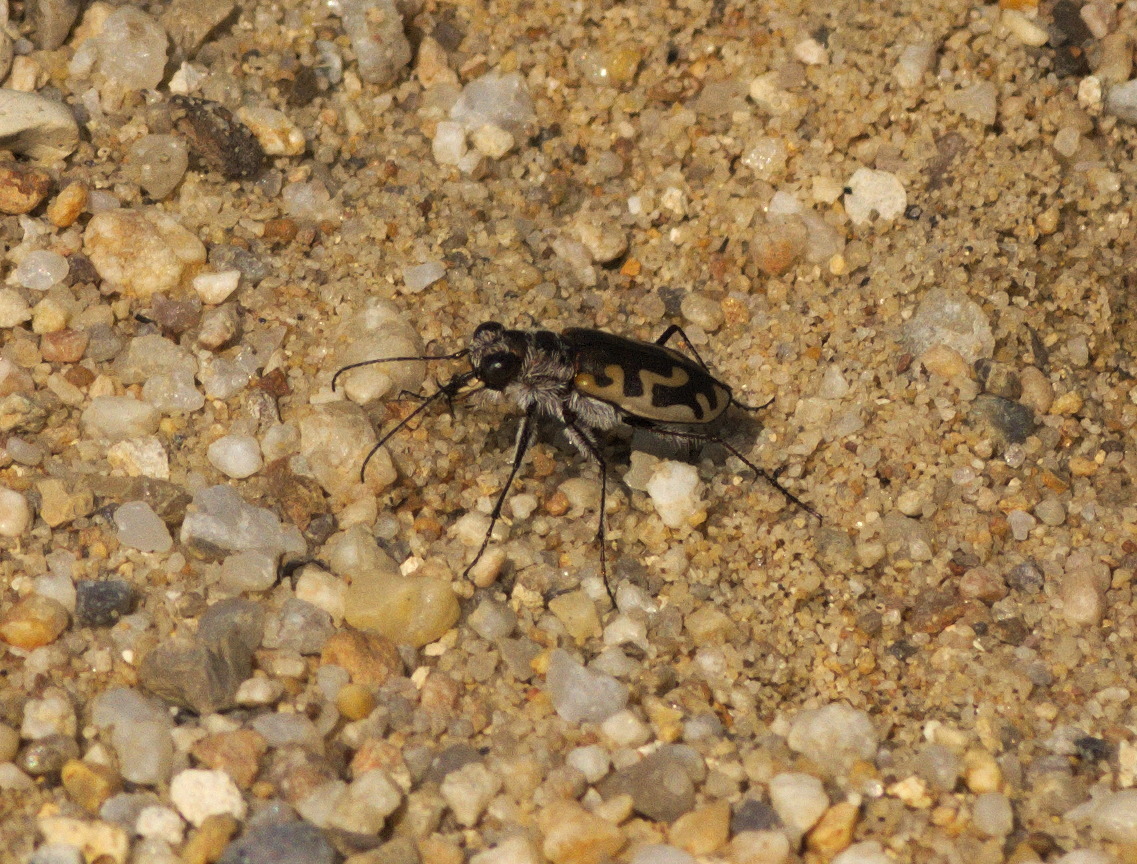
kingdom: Animalia
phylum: Arthropoda
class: Insecta
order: Coleoptera
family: Carabidae
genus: Cicindela
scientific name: Cicindela hirticollis
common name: Hairy-necked tiger beetle
